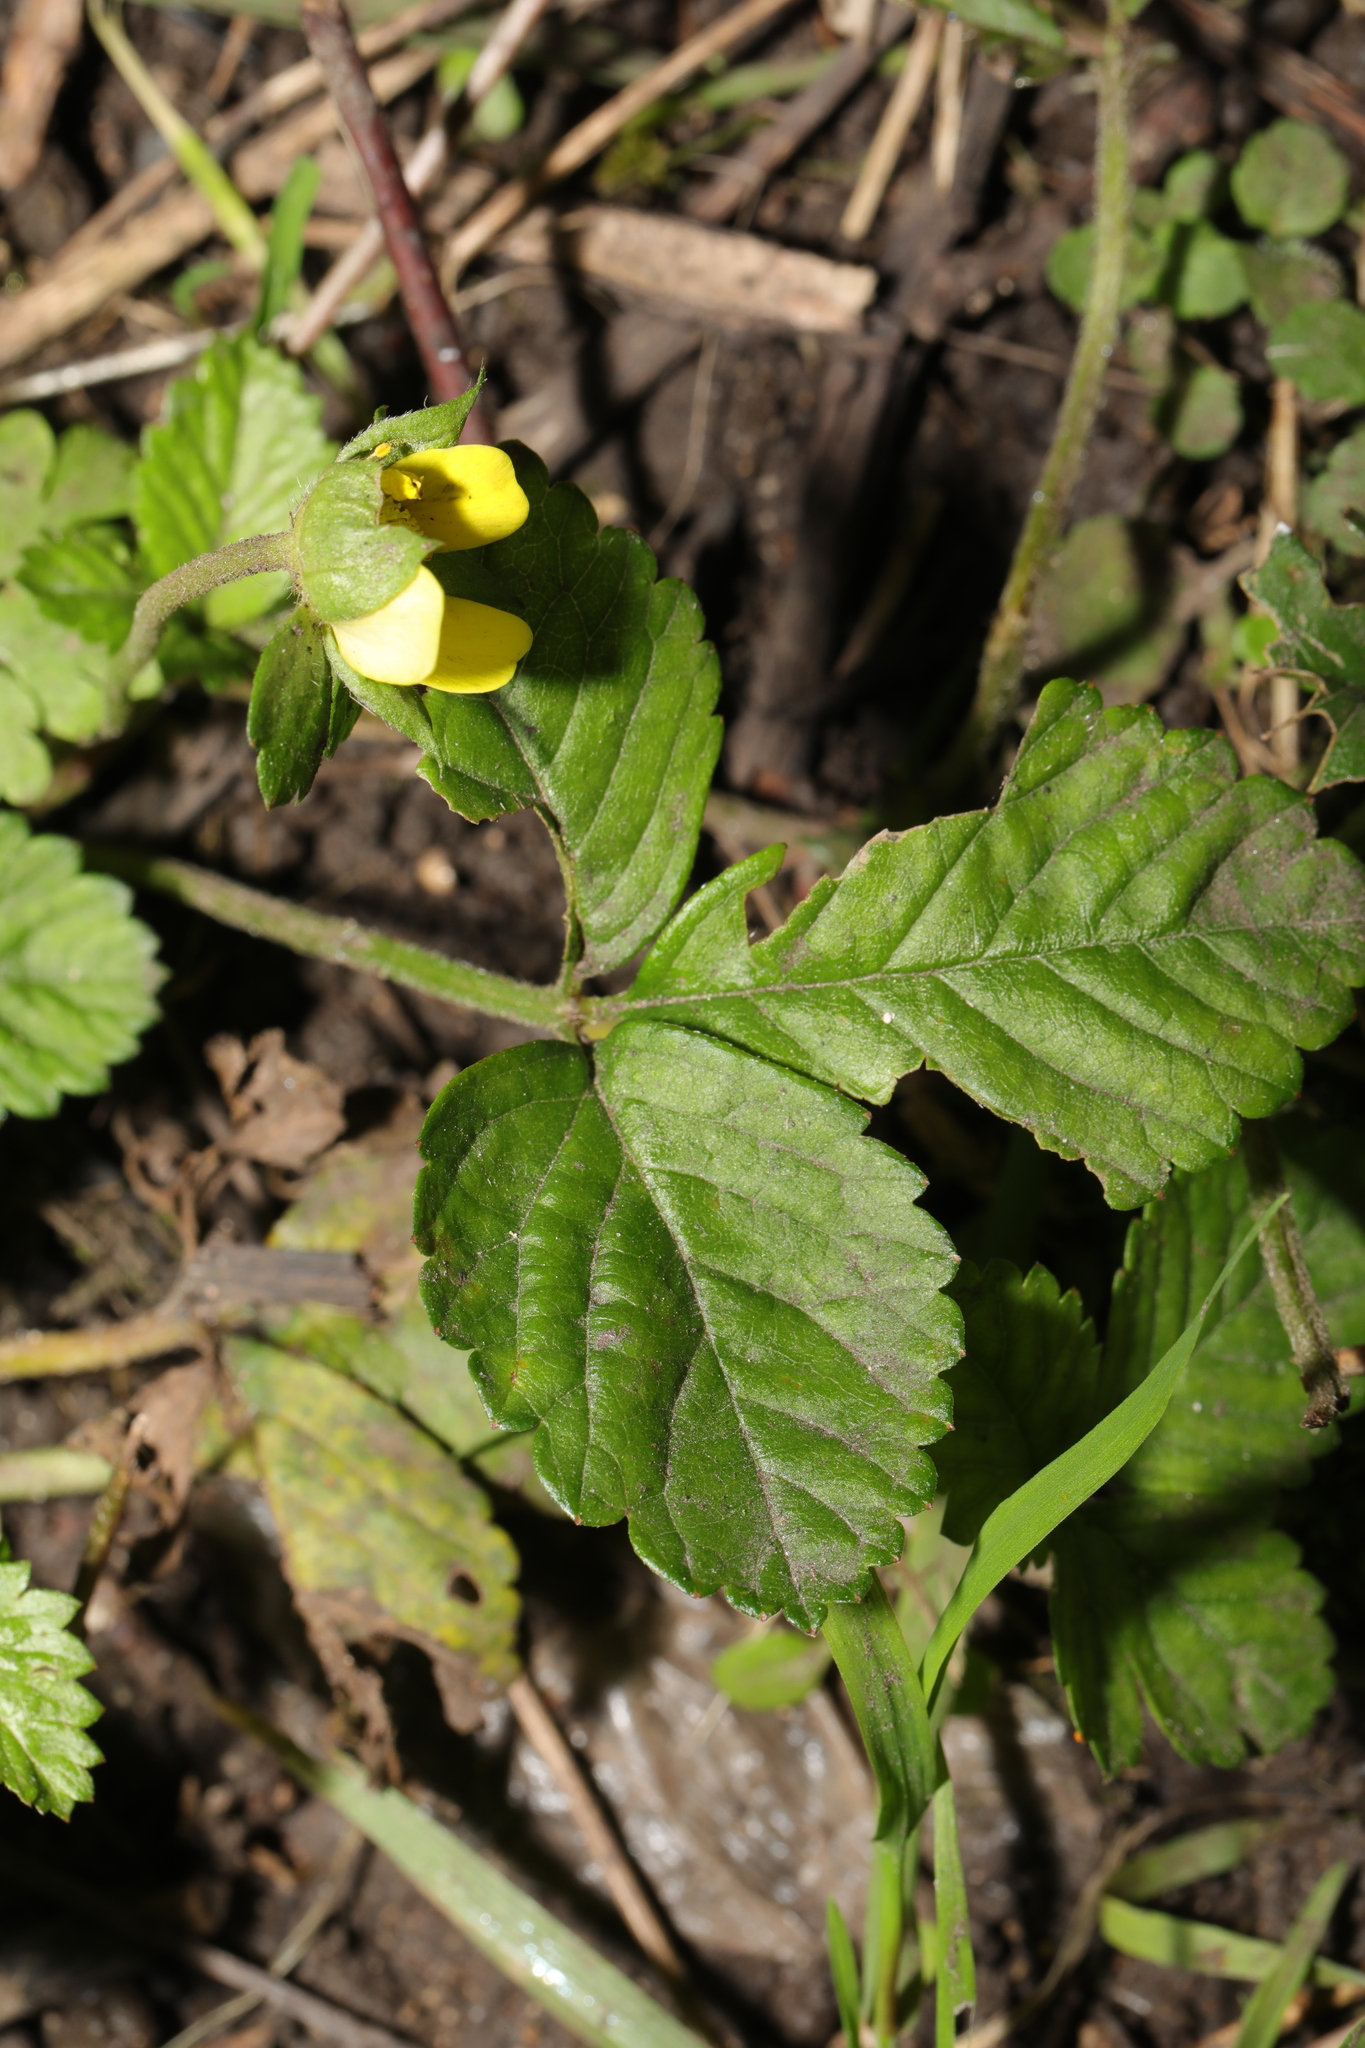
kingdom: Plantae
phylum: Tracheophyta
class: Magnoliopsida
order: Rosales
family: Rosaceae
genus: Potentilla
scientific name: Potentilla indica
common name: Yellow-flowered strawberry
